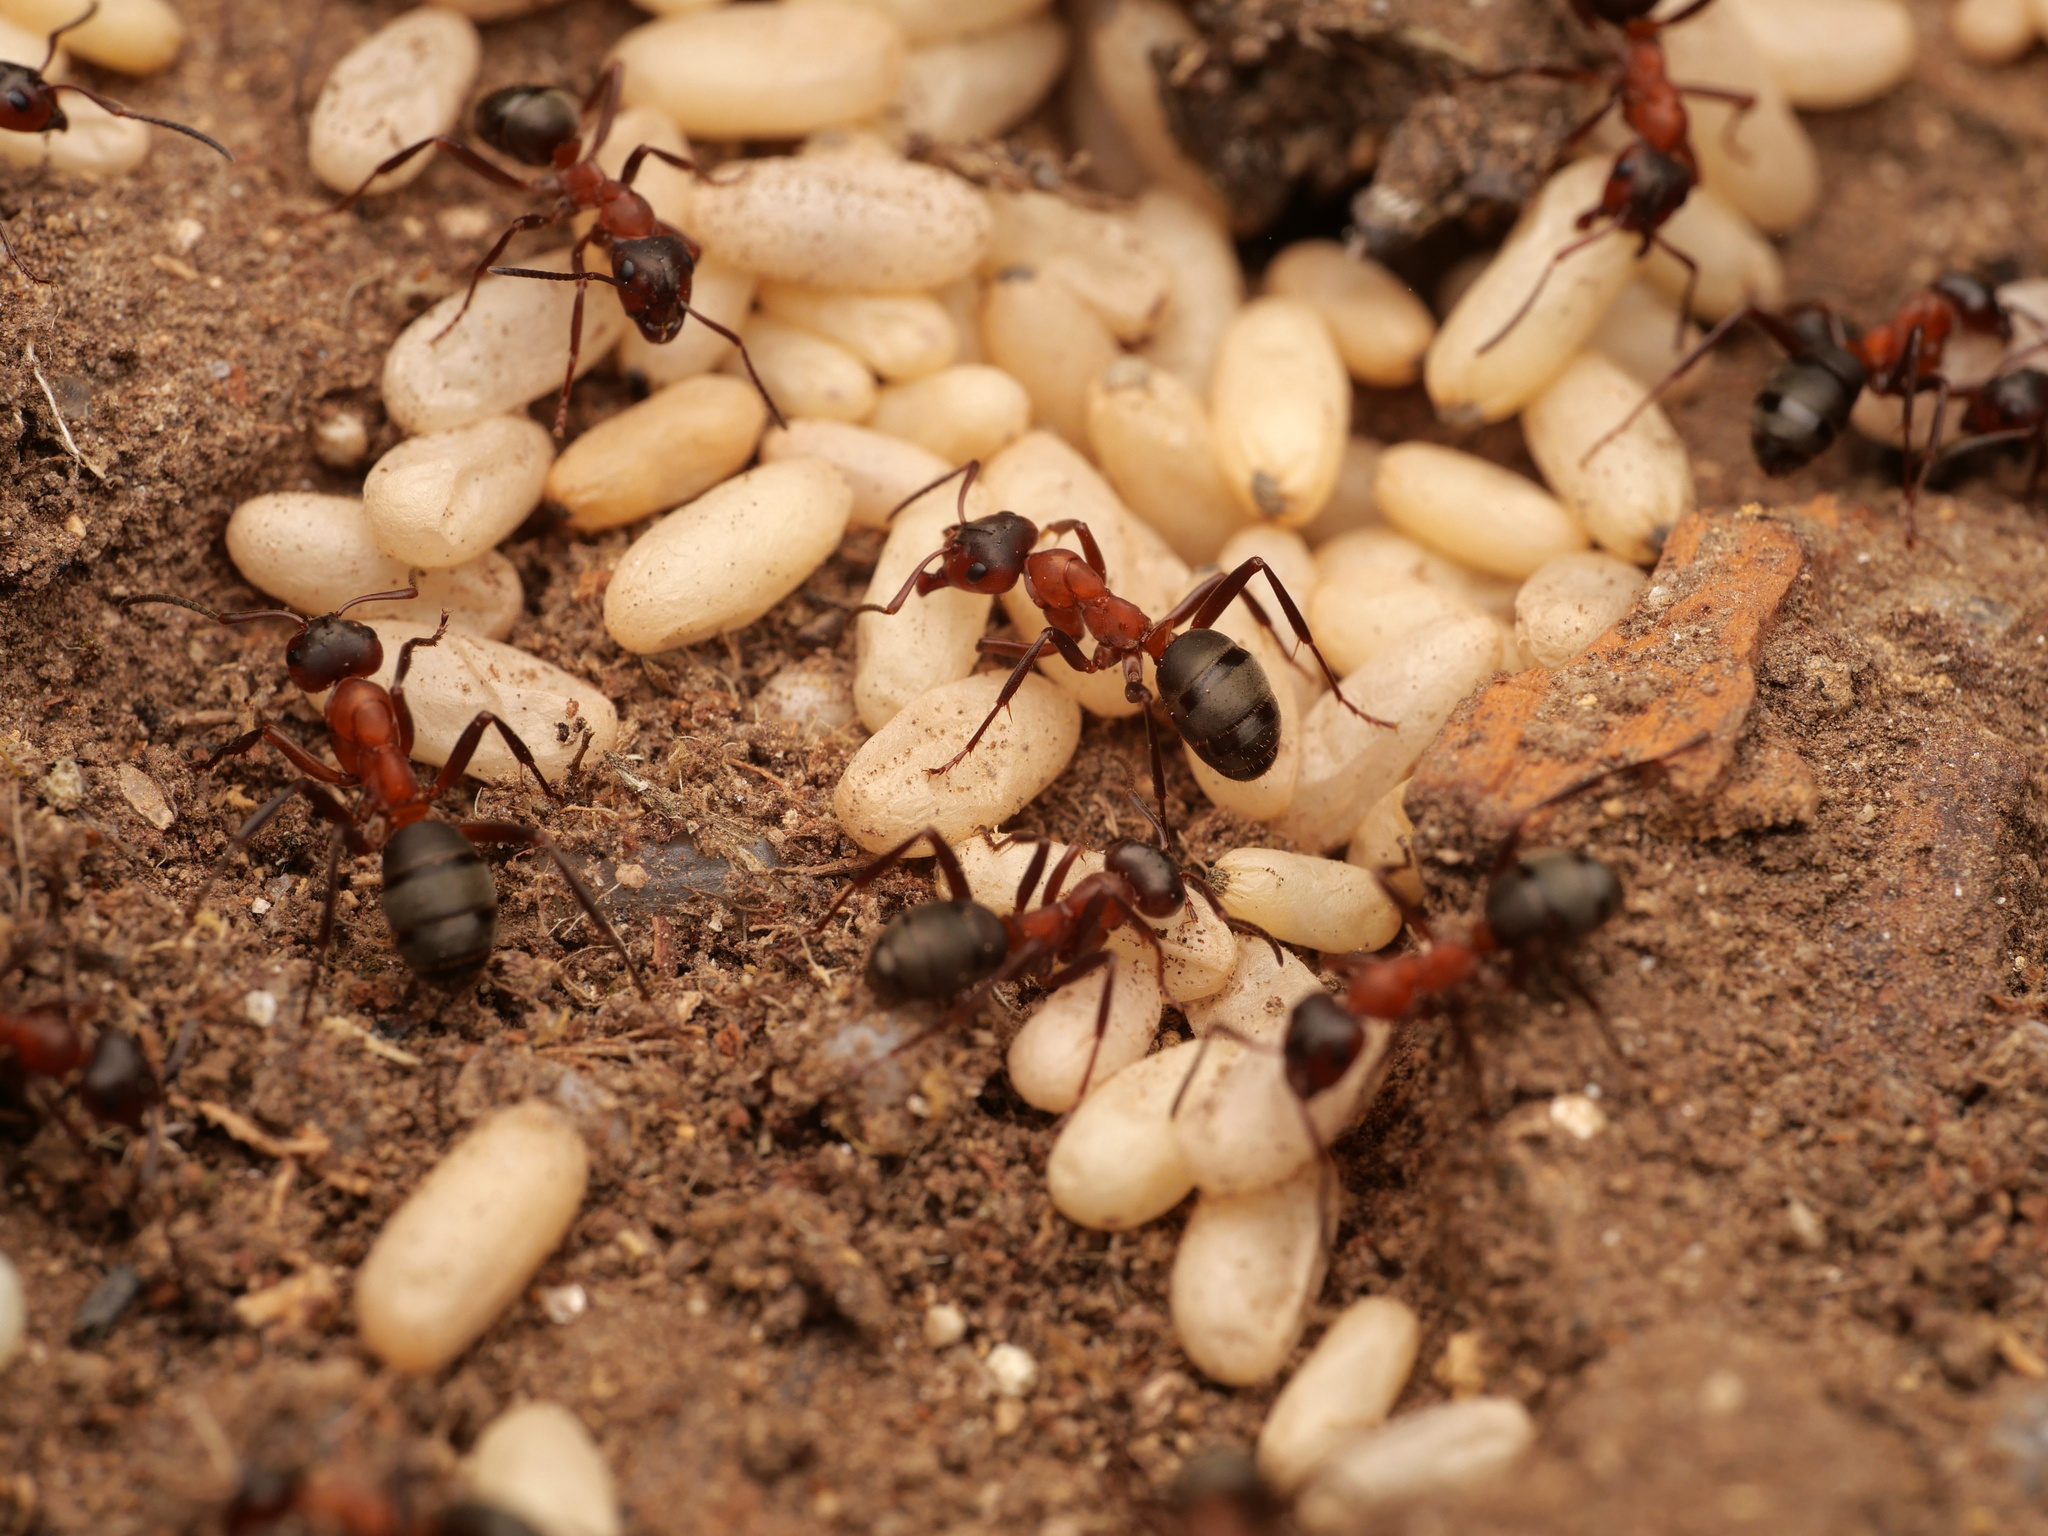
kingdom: Animalia
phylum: Arthropoda
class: Insecta
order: Hymenoptera
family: Formicidae
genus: Formica
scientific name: Formica sanguinea
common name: Blood-red ant
